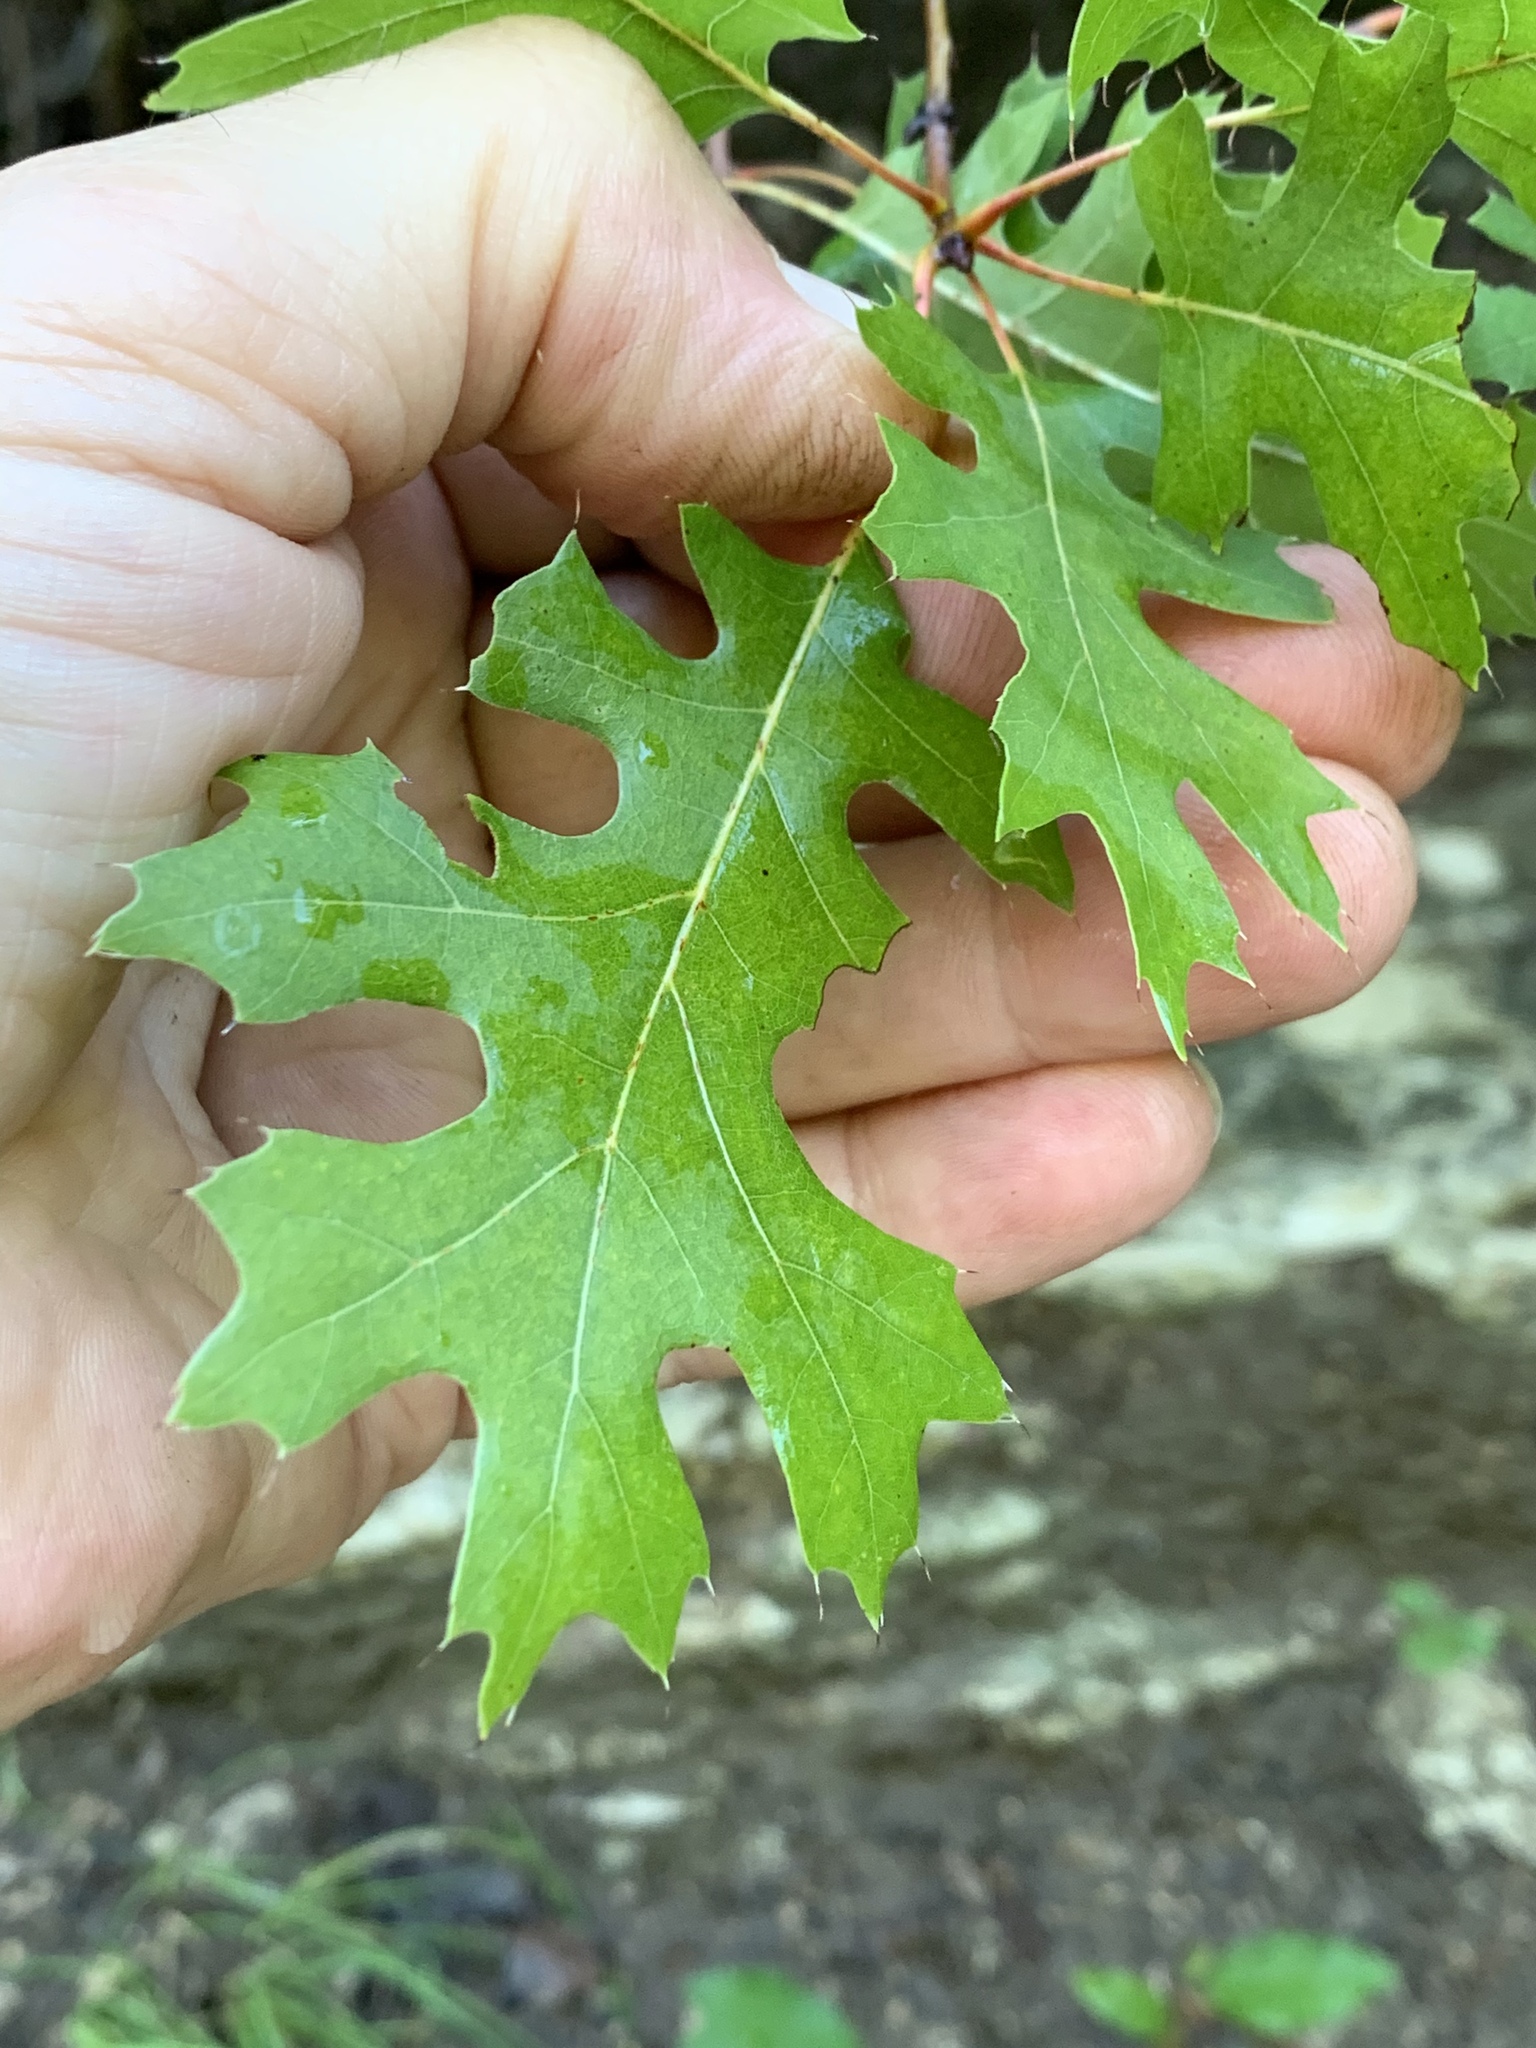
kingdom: Plantae
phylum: Tracheophyta
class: Magnoliopsida
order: Fagales
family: Fagaceae
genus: Quercus
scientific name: Quercus buckleyi
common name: Buckley oak
